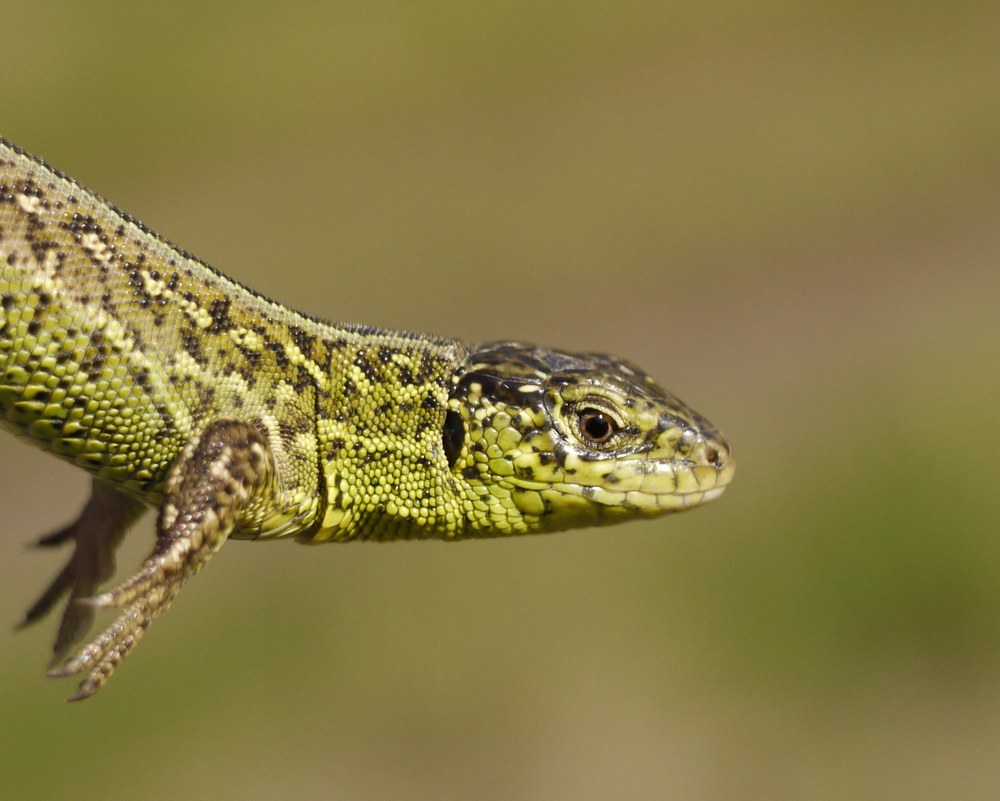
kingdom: Animalia
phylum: Chordata
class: Squamata
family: Lacertidae
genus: Lacerta
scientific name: Lacerta agilis
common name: Sand lizard
